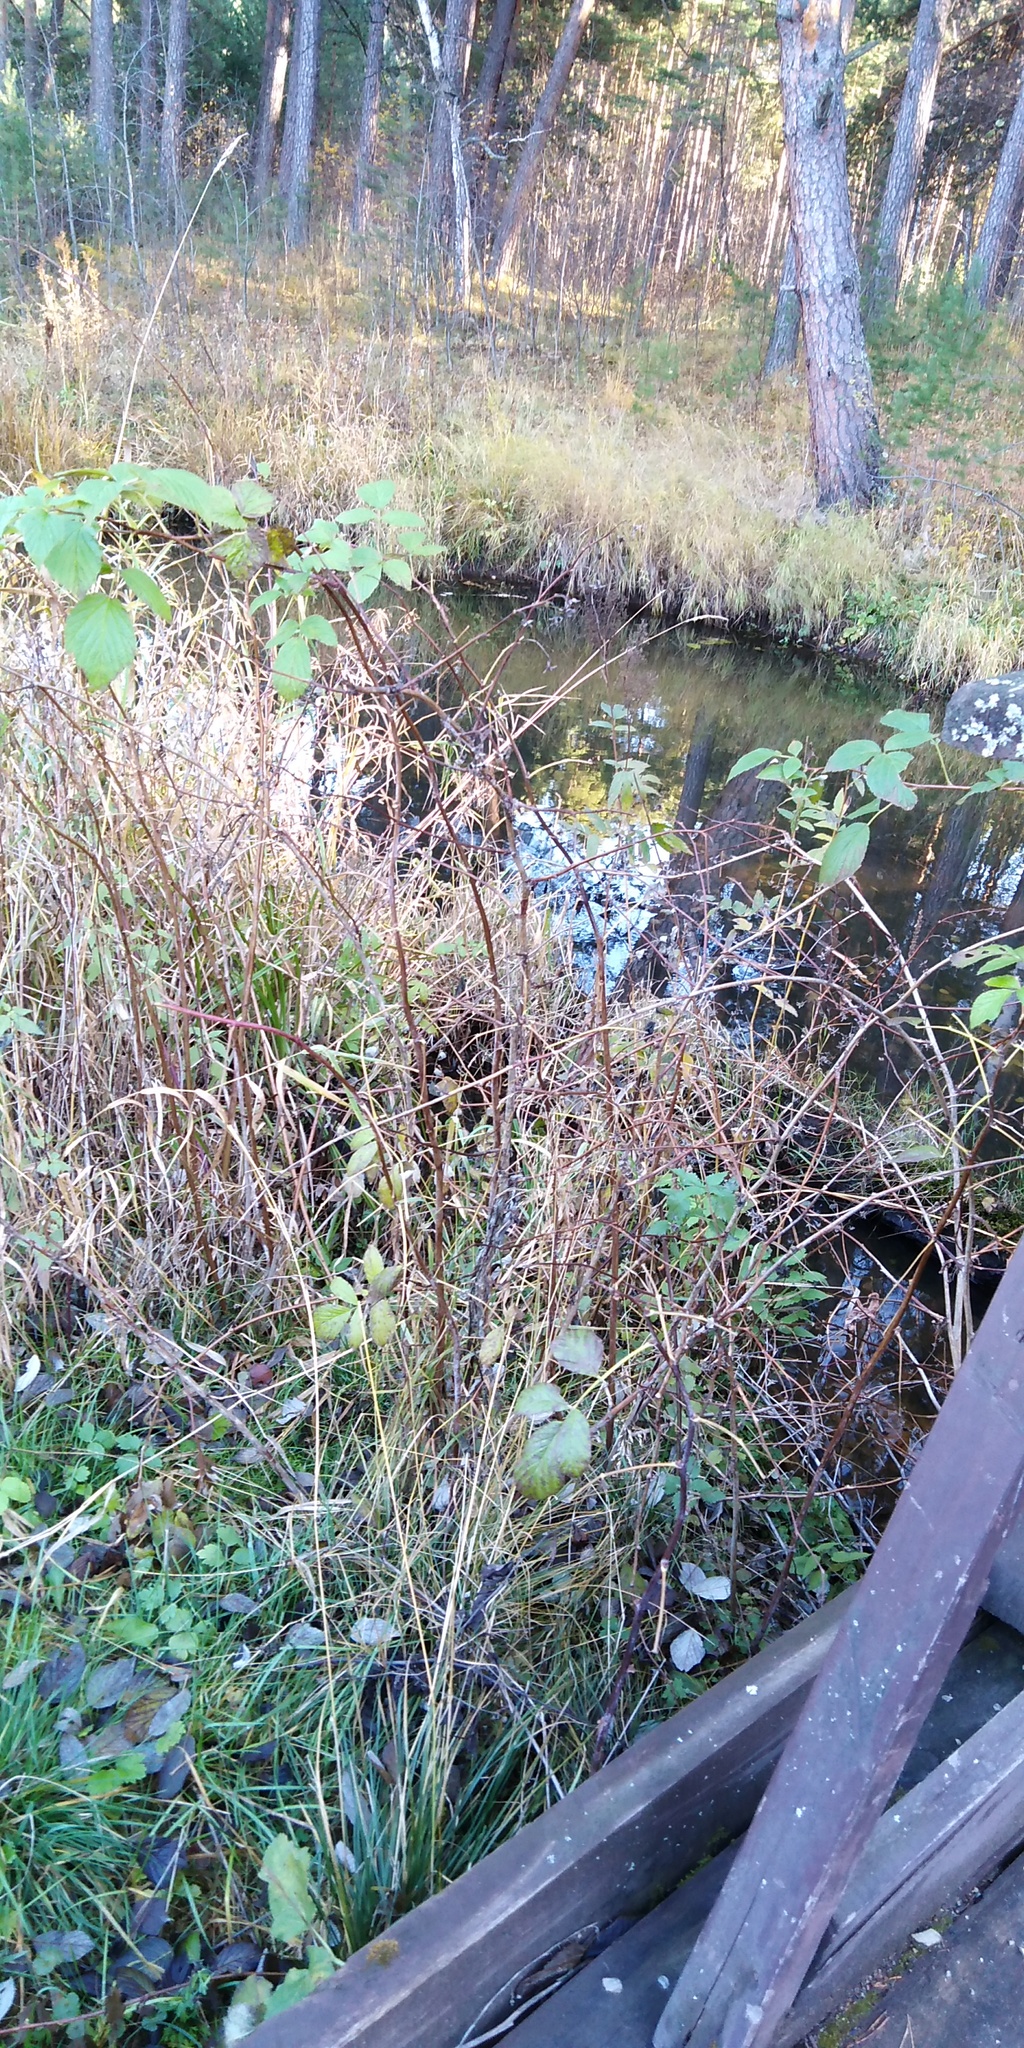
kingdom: Plantae
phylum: Tracheophyta
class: Magnoliopsida
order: Rosales
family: Rosaceae
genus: Rubus
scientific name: Rubus idaeus
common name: Raspberry
